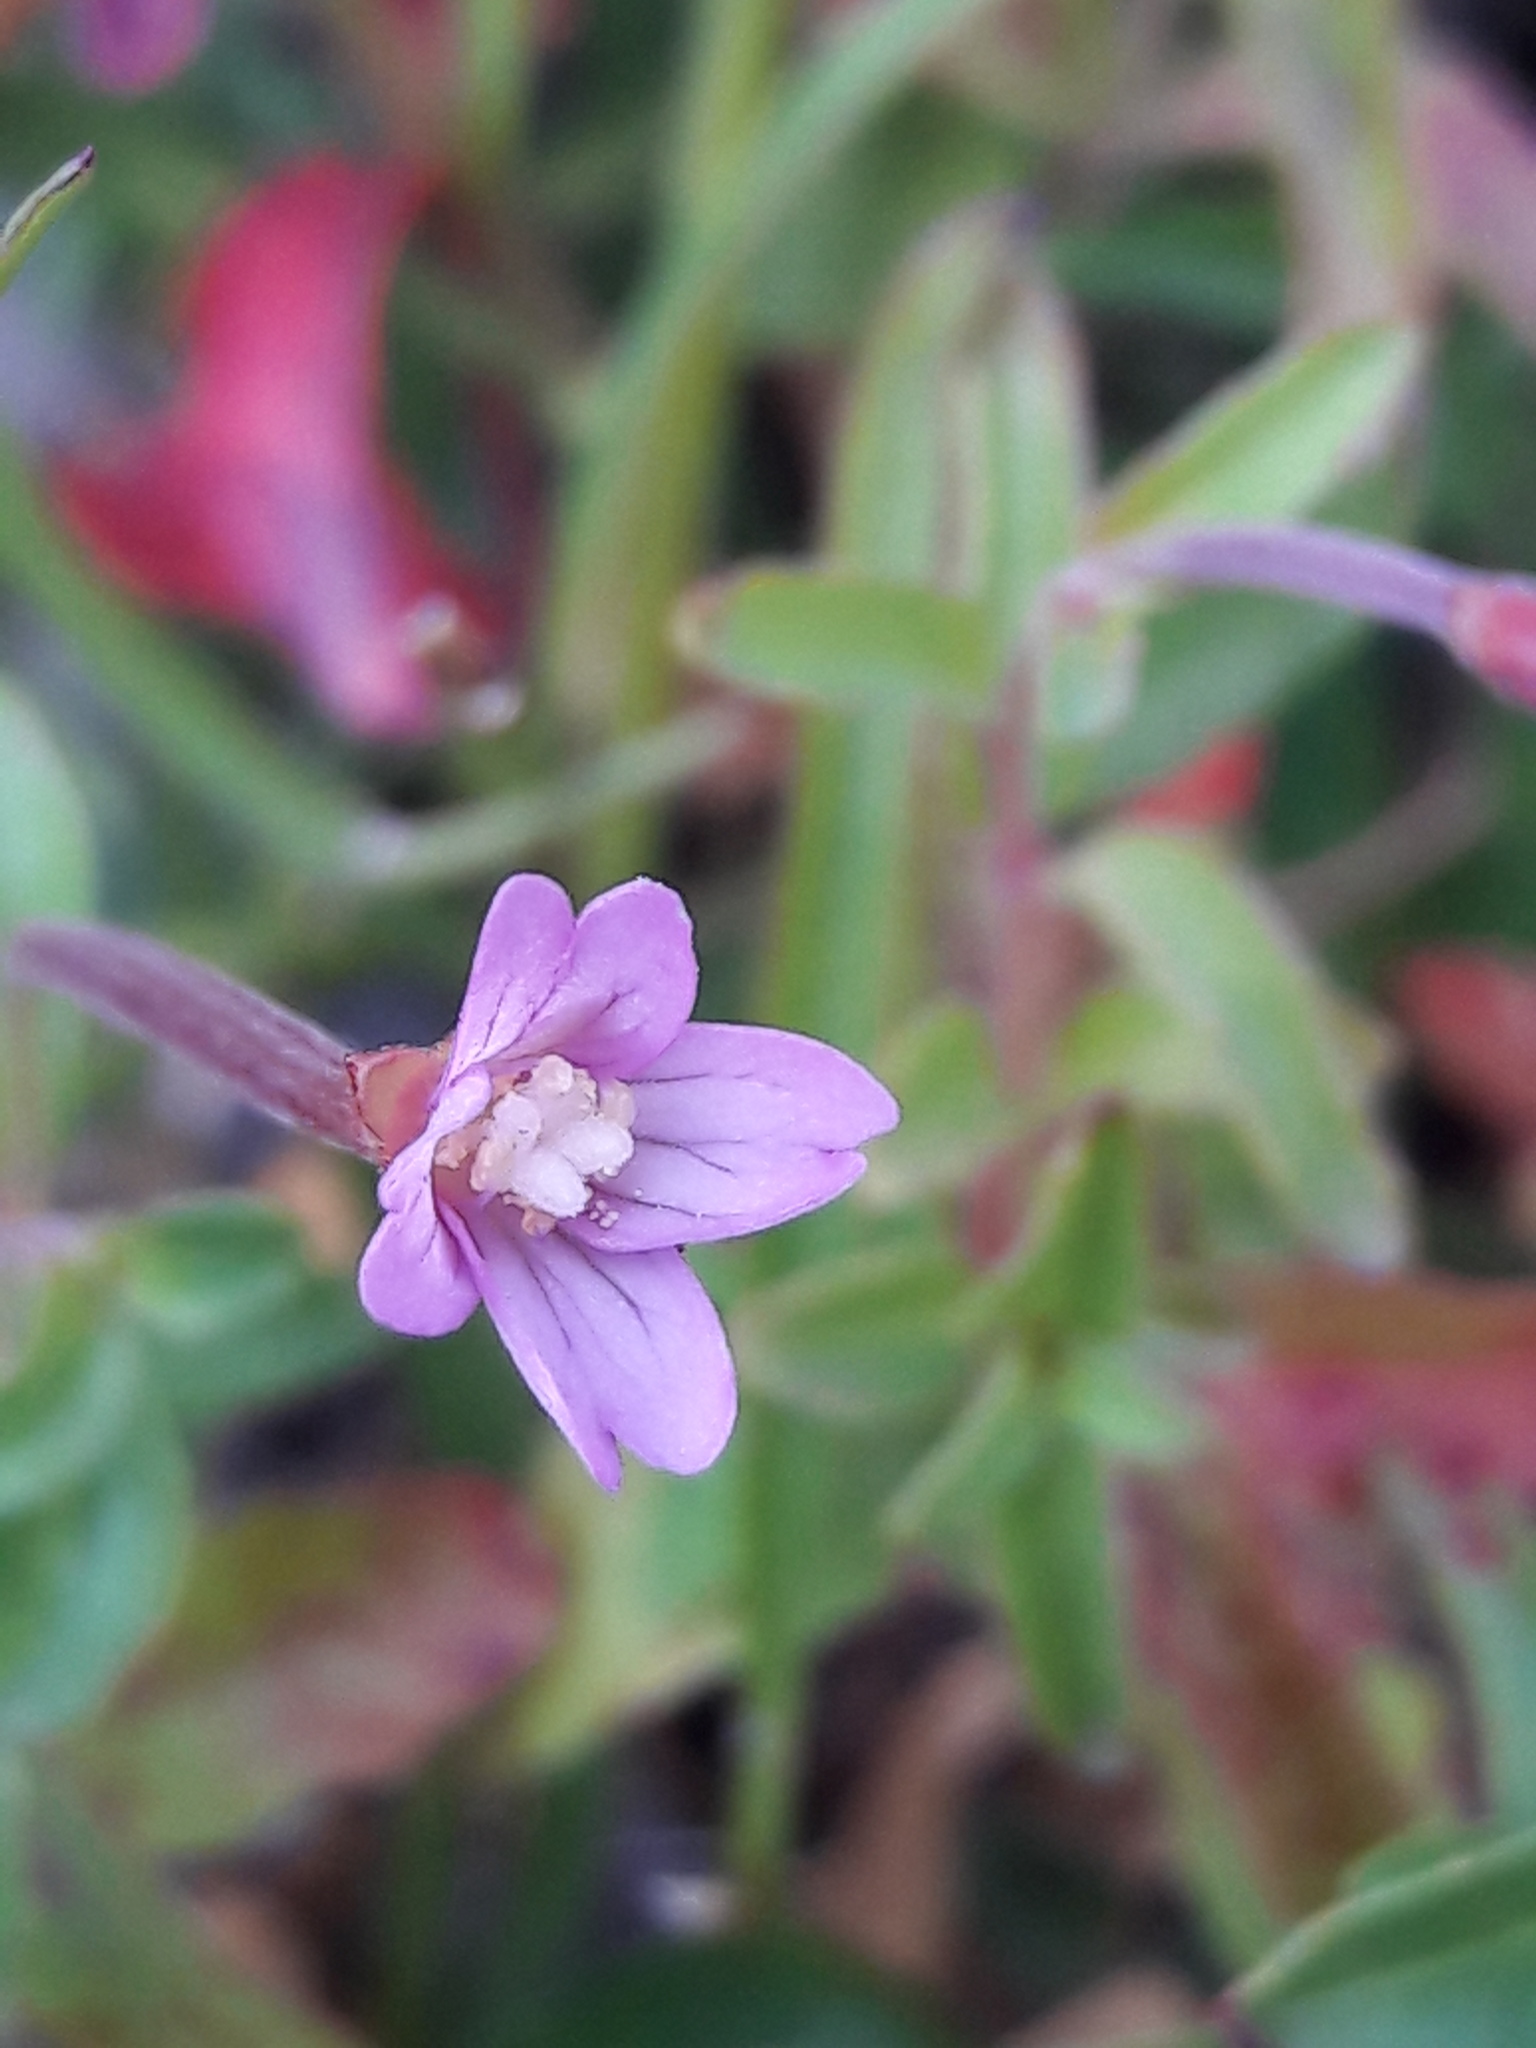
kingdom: Plantae
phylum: Tracheophyta
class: Magnoliopsida
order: Myrtales
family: Onagraceae
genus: Epilobium
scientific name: Epilobium collinum
